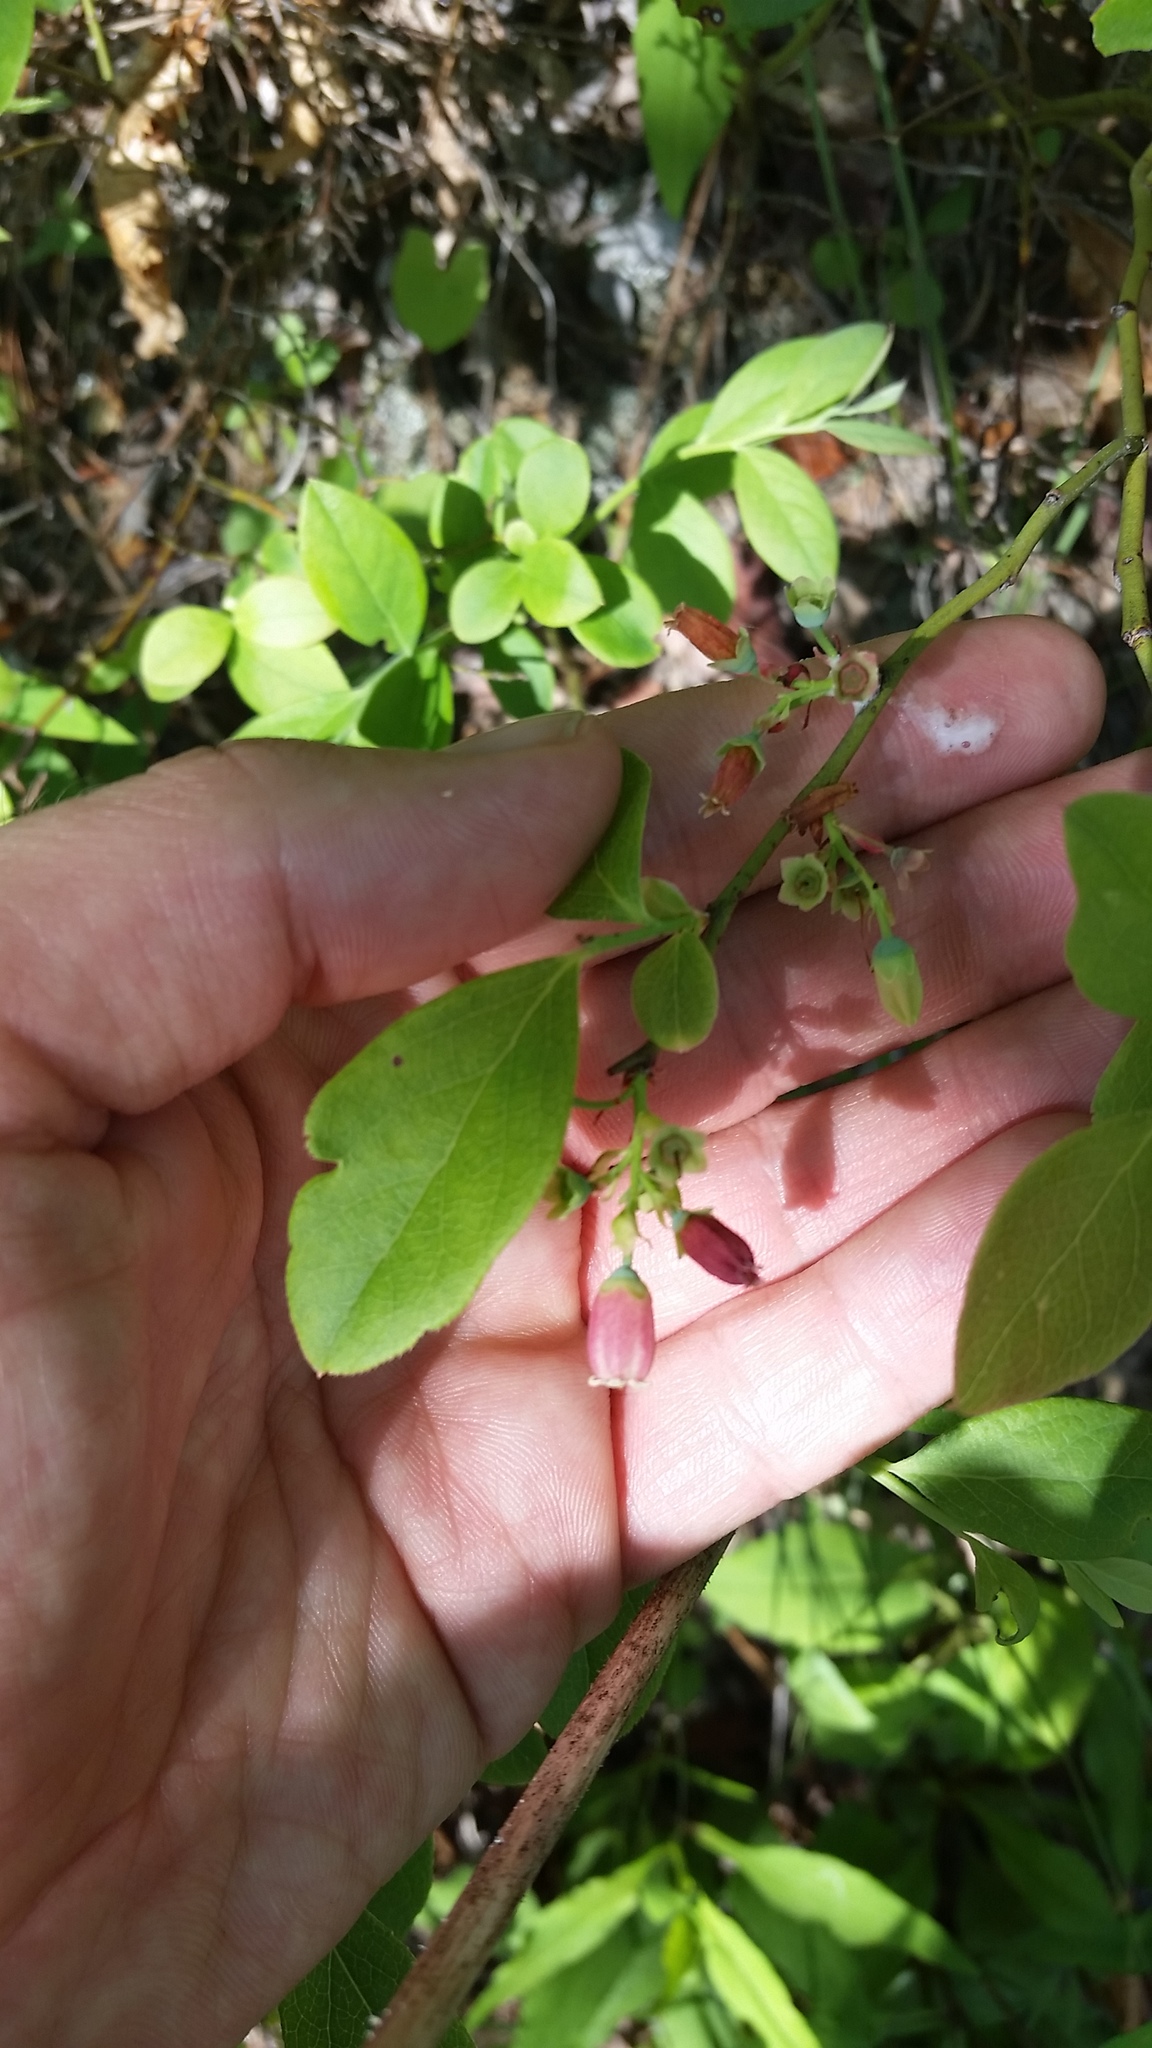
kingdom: Plantae
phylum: Tracheophyta
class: Magnoliopsida
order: Ericales
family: Ericaceae
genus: Vaccinium
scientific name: Vaccinium pallidum
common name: Blue ridge blueberry
